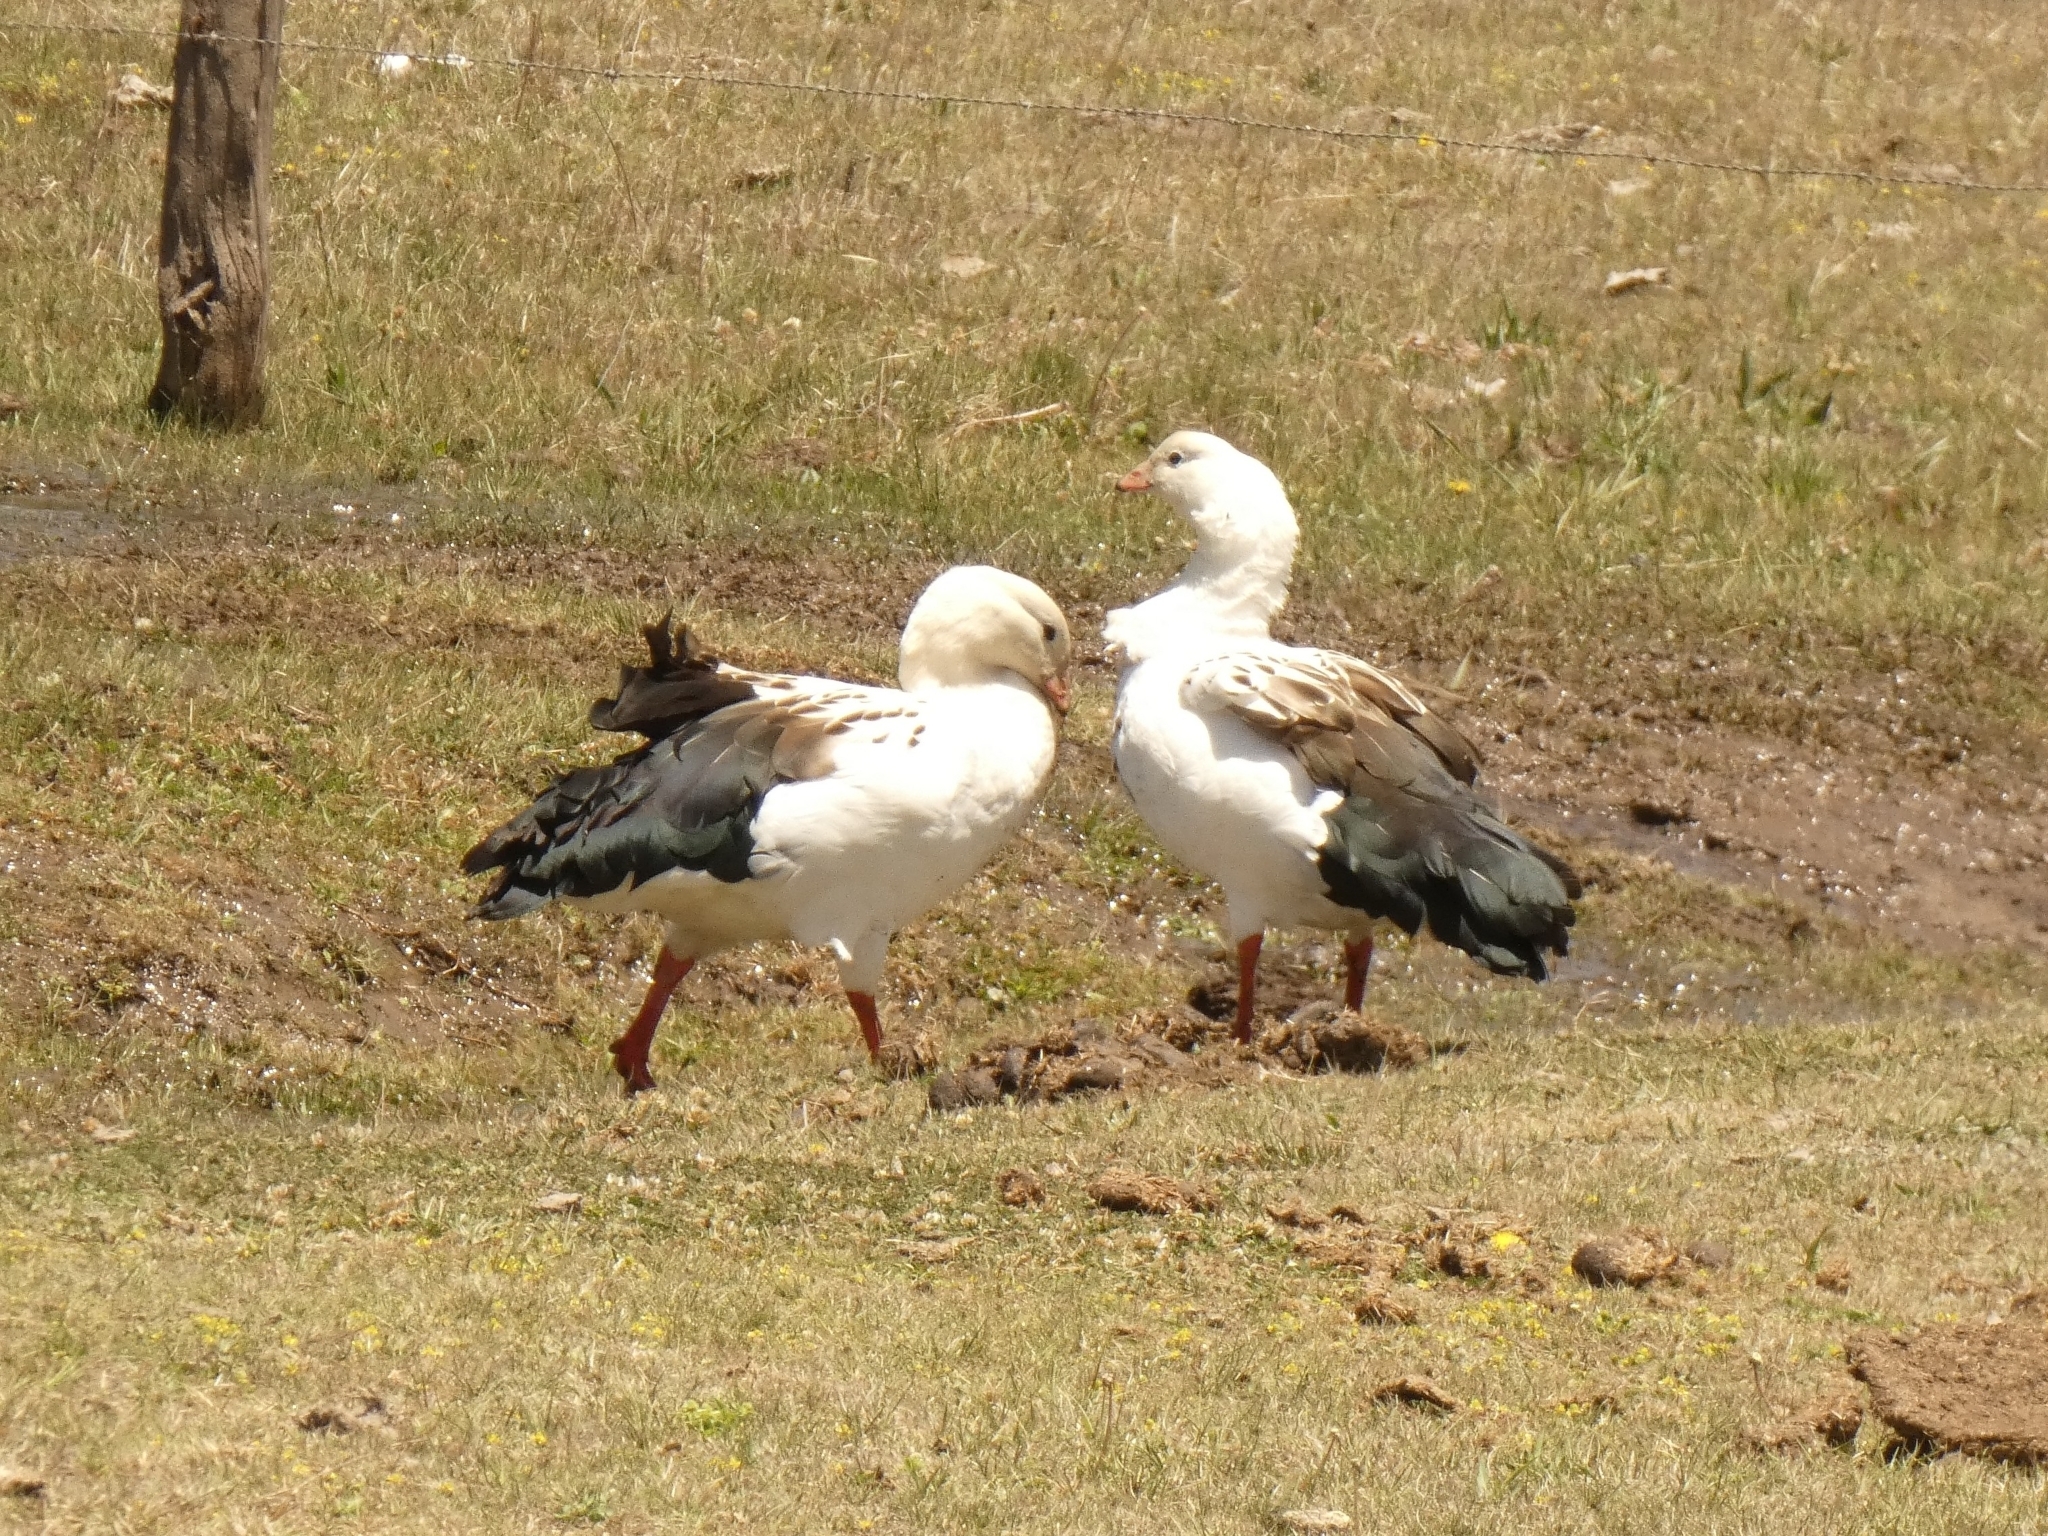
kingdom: Animalia
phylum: Chordata
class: Aves
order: Anseriformes
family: Anatidae
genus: Chloephaga
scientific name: Chloephaga melanoptera
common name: Andean goose
